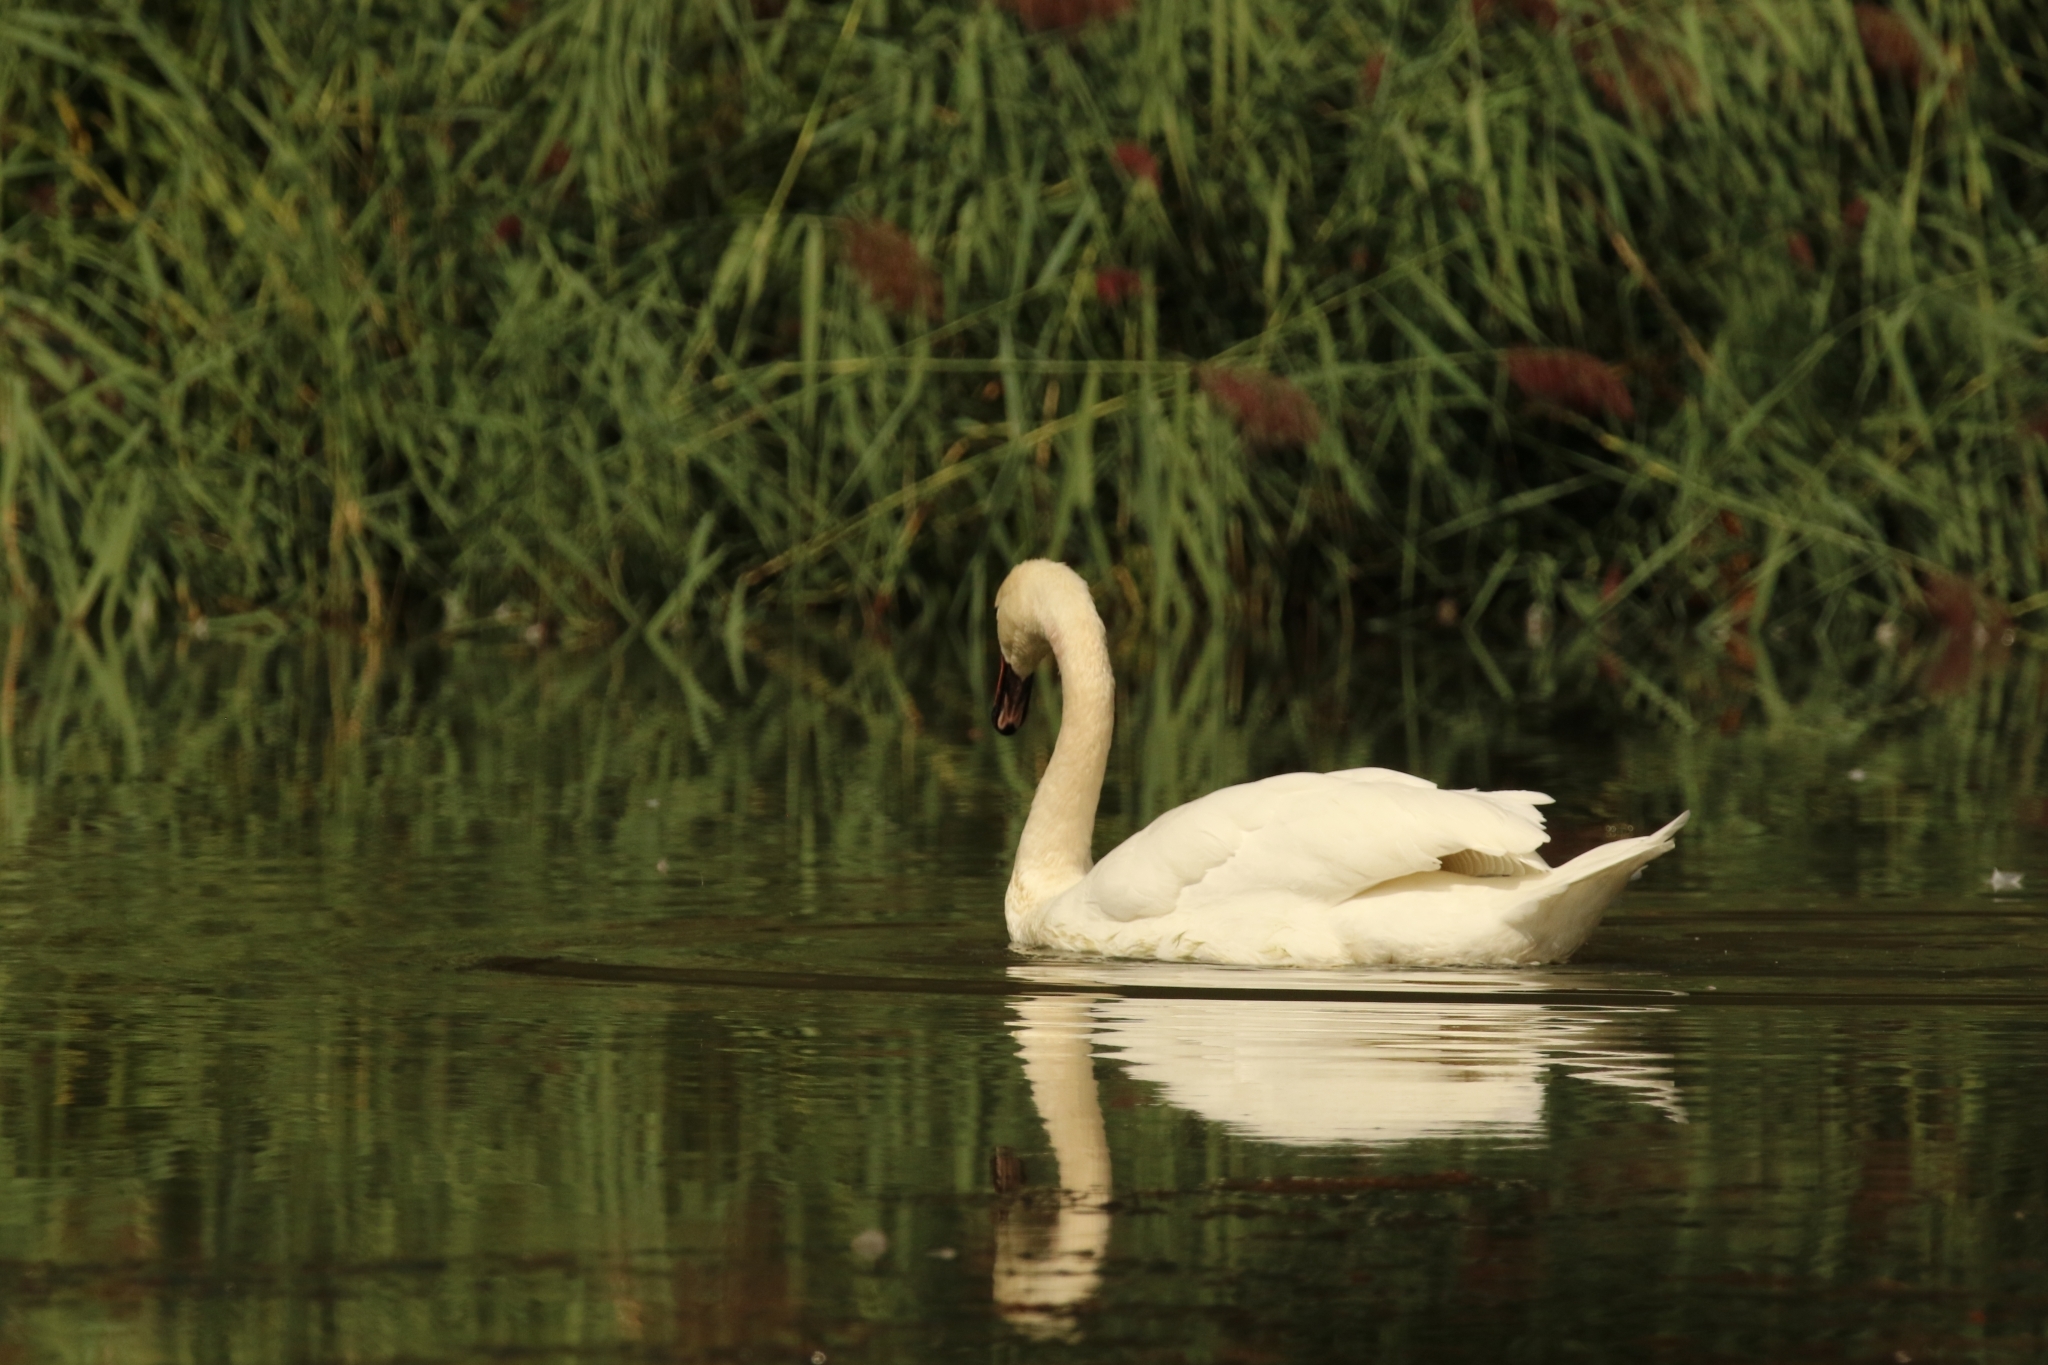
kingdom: Animalia
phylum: Chordata
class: Aves
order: Anseriformes
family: Anatidae
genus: Cygnus
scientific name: Cygnus olor
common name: Mute swan
